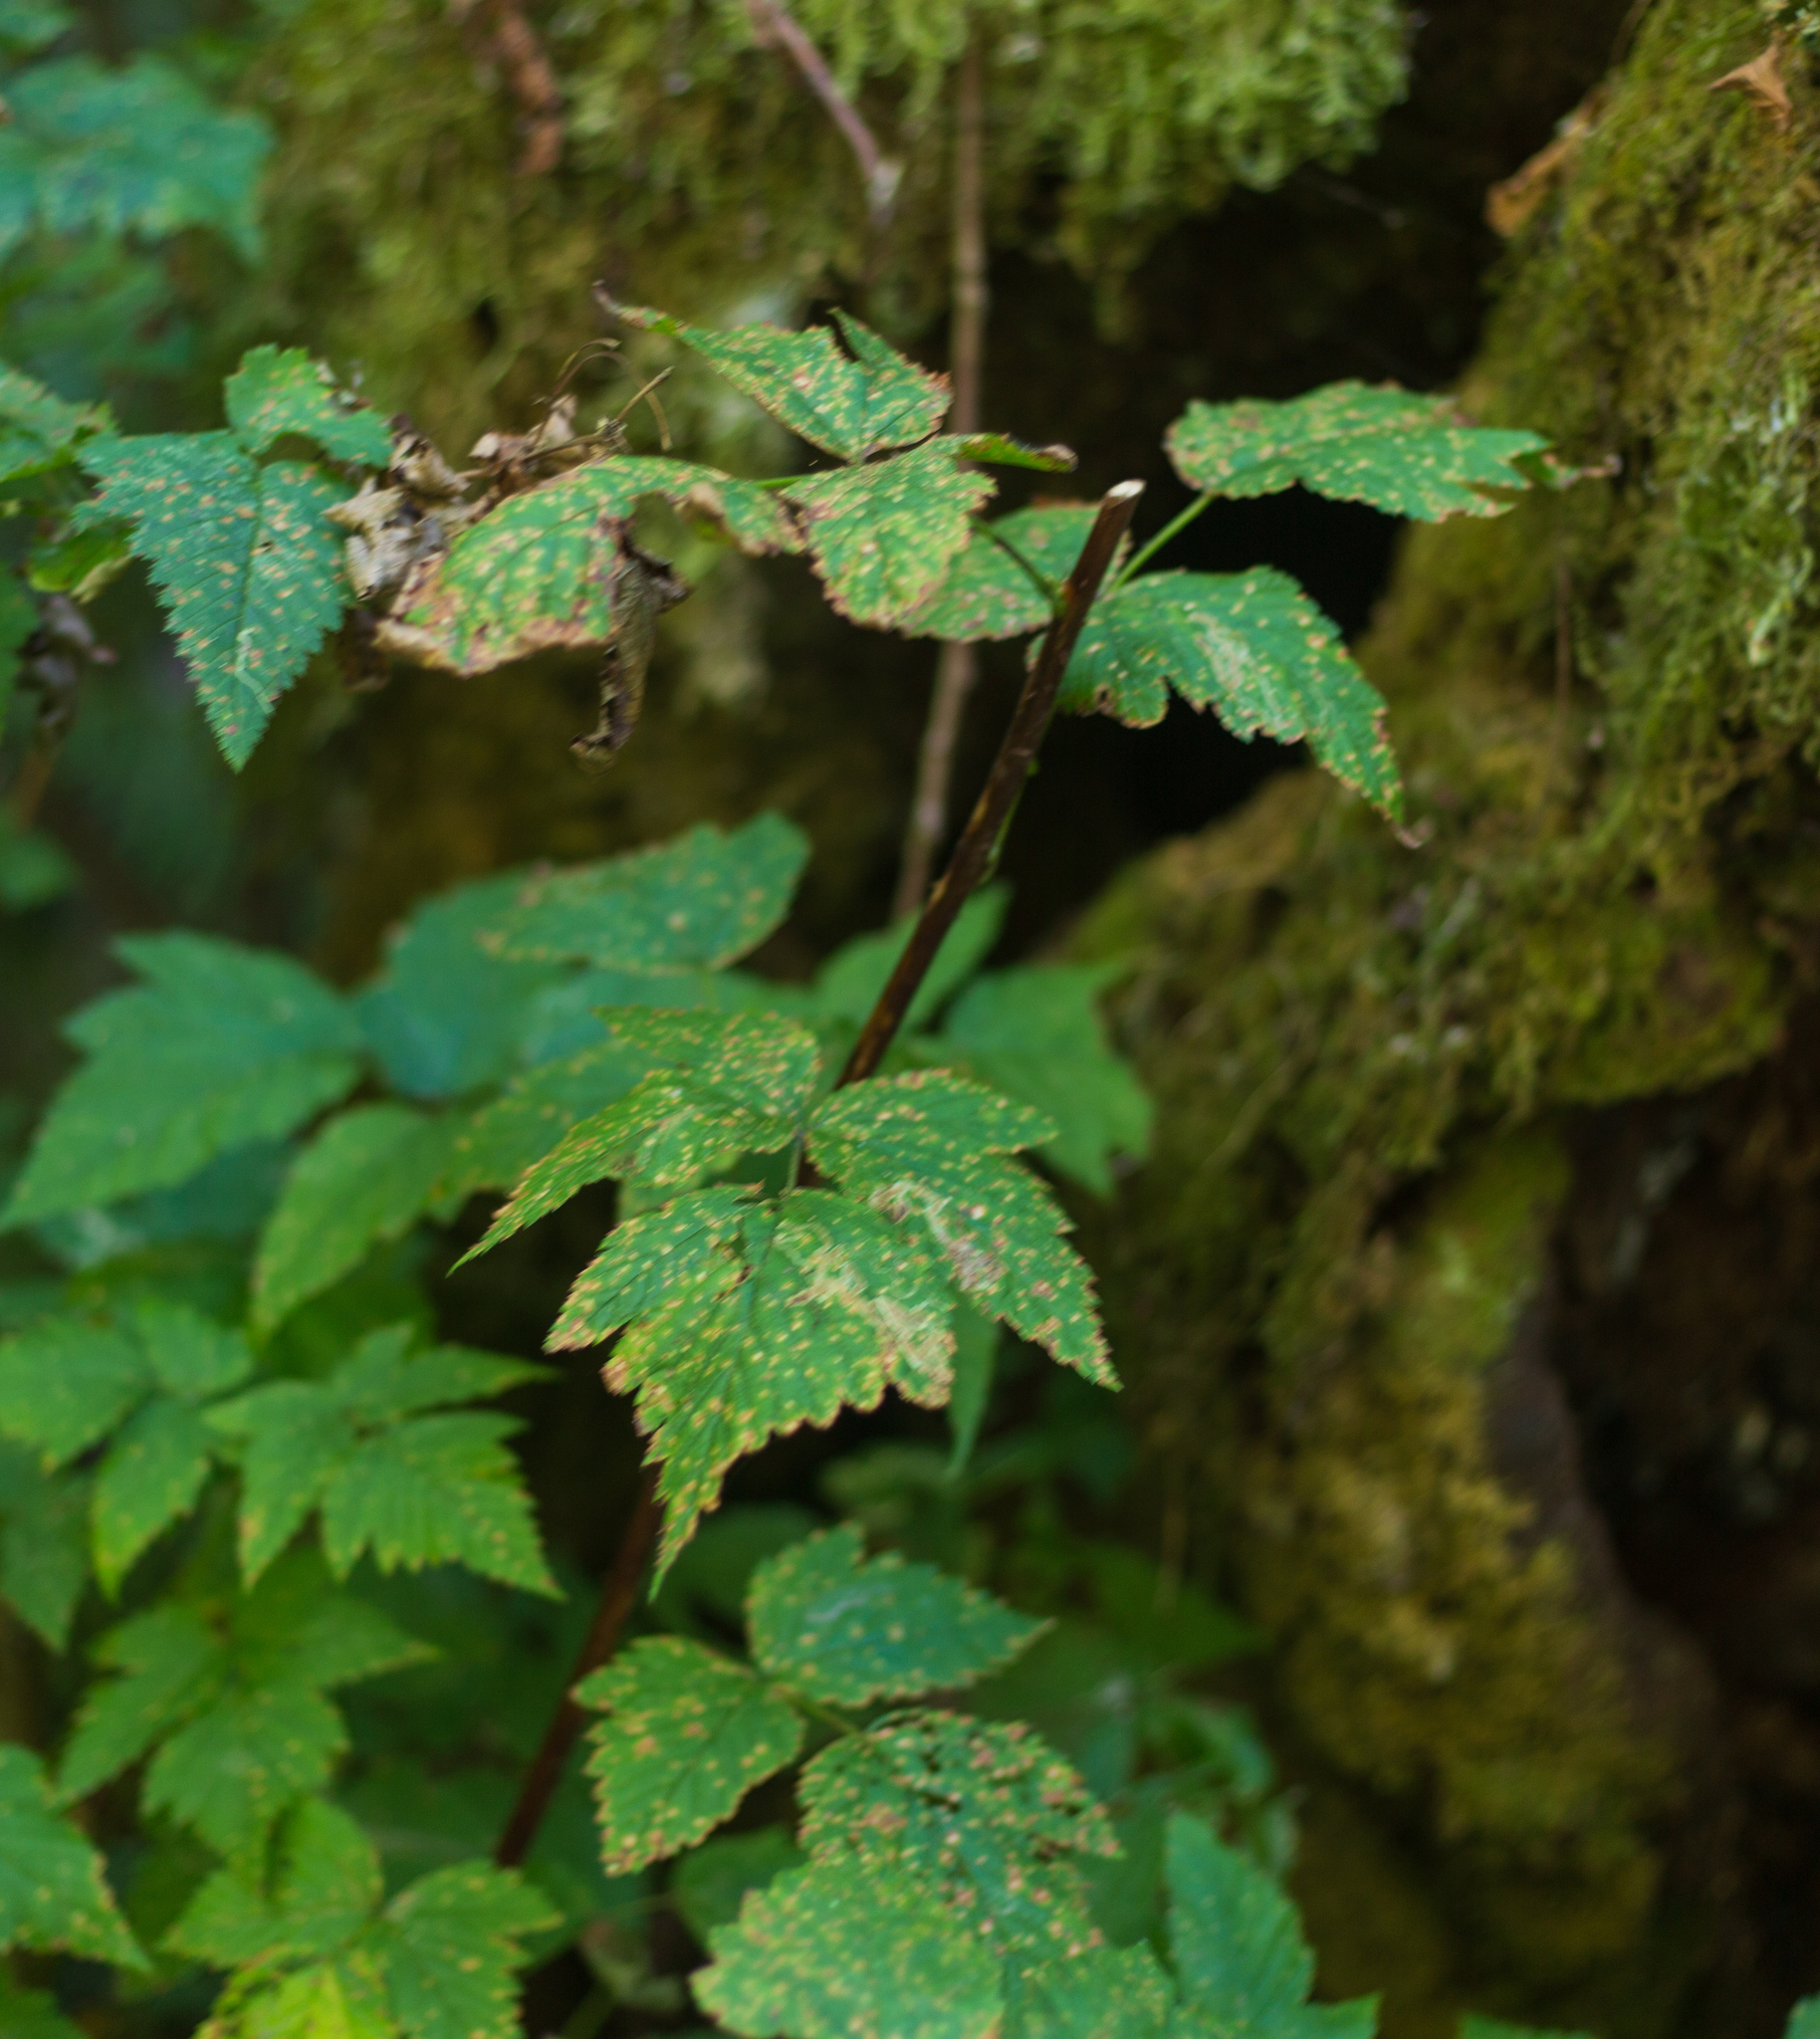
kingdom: Plantae
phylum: Tracheophyta
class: Magnoliopsida
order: Rosales
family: Rosaceae
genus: Rubus
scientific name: Rubus spectabilis
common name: Salmonberry
